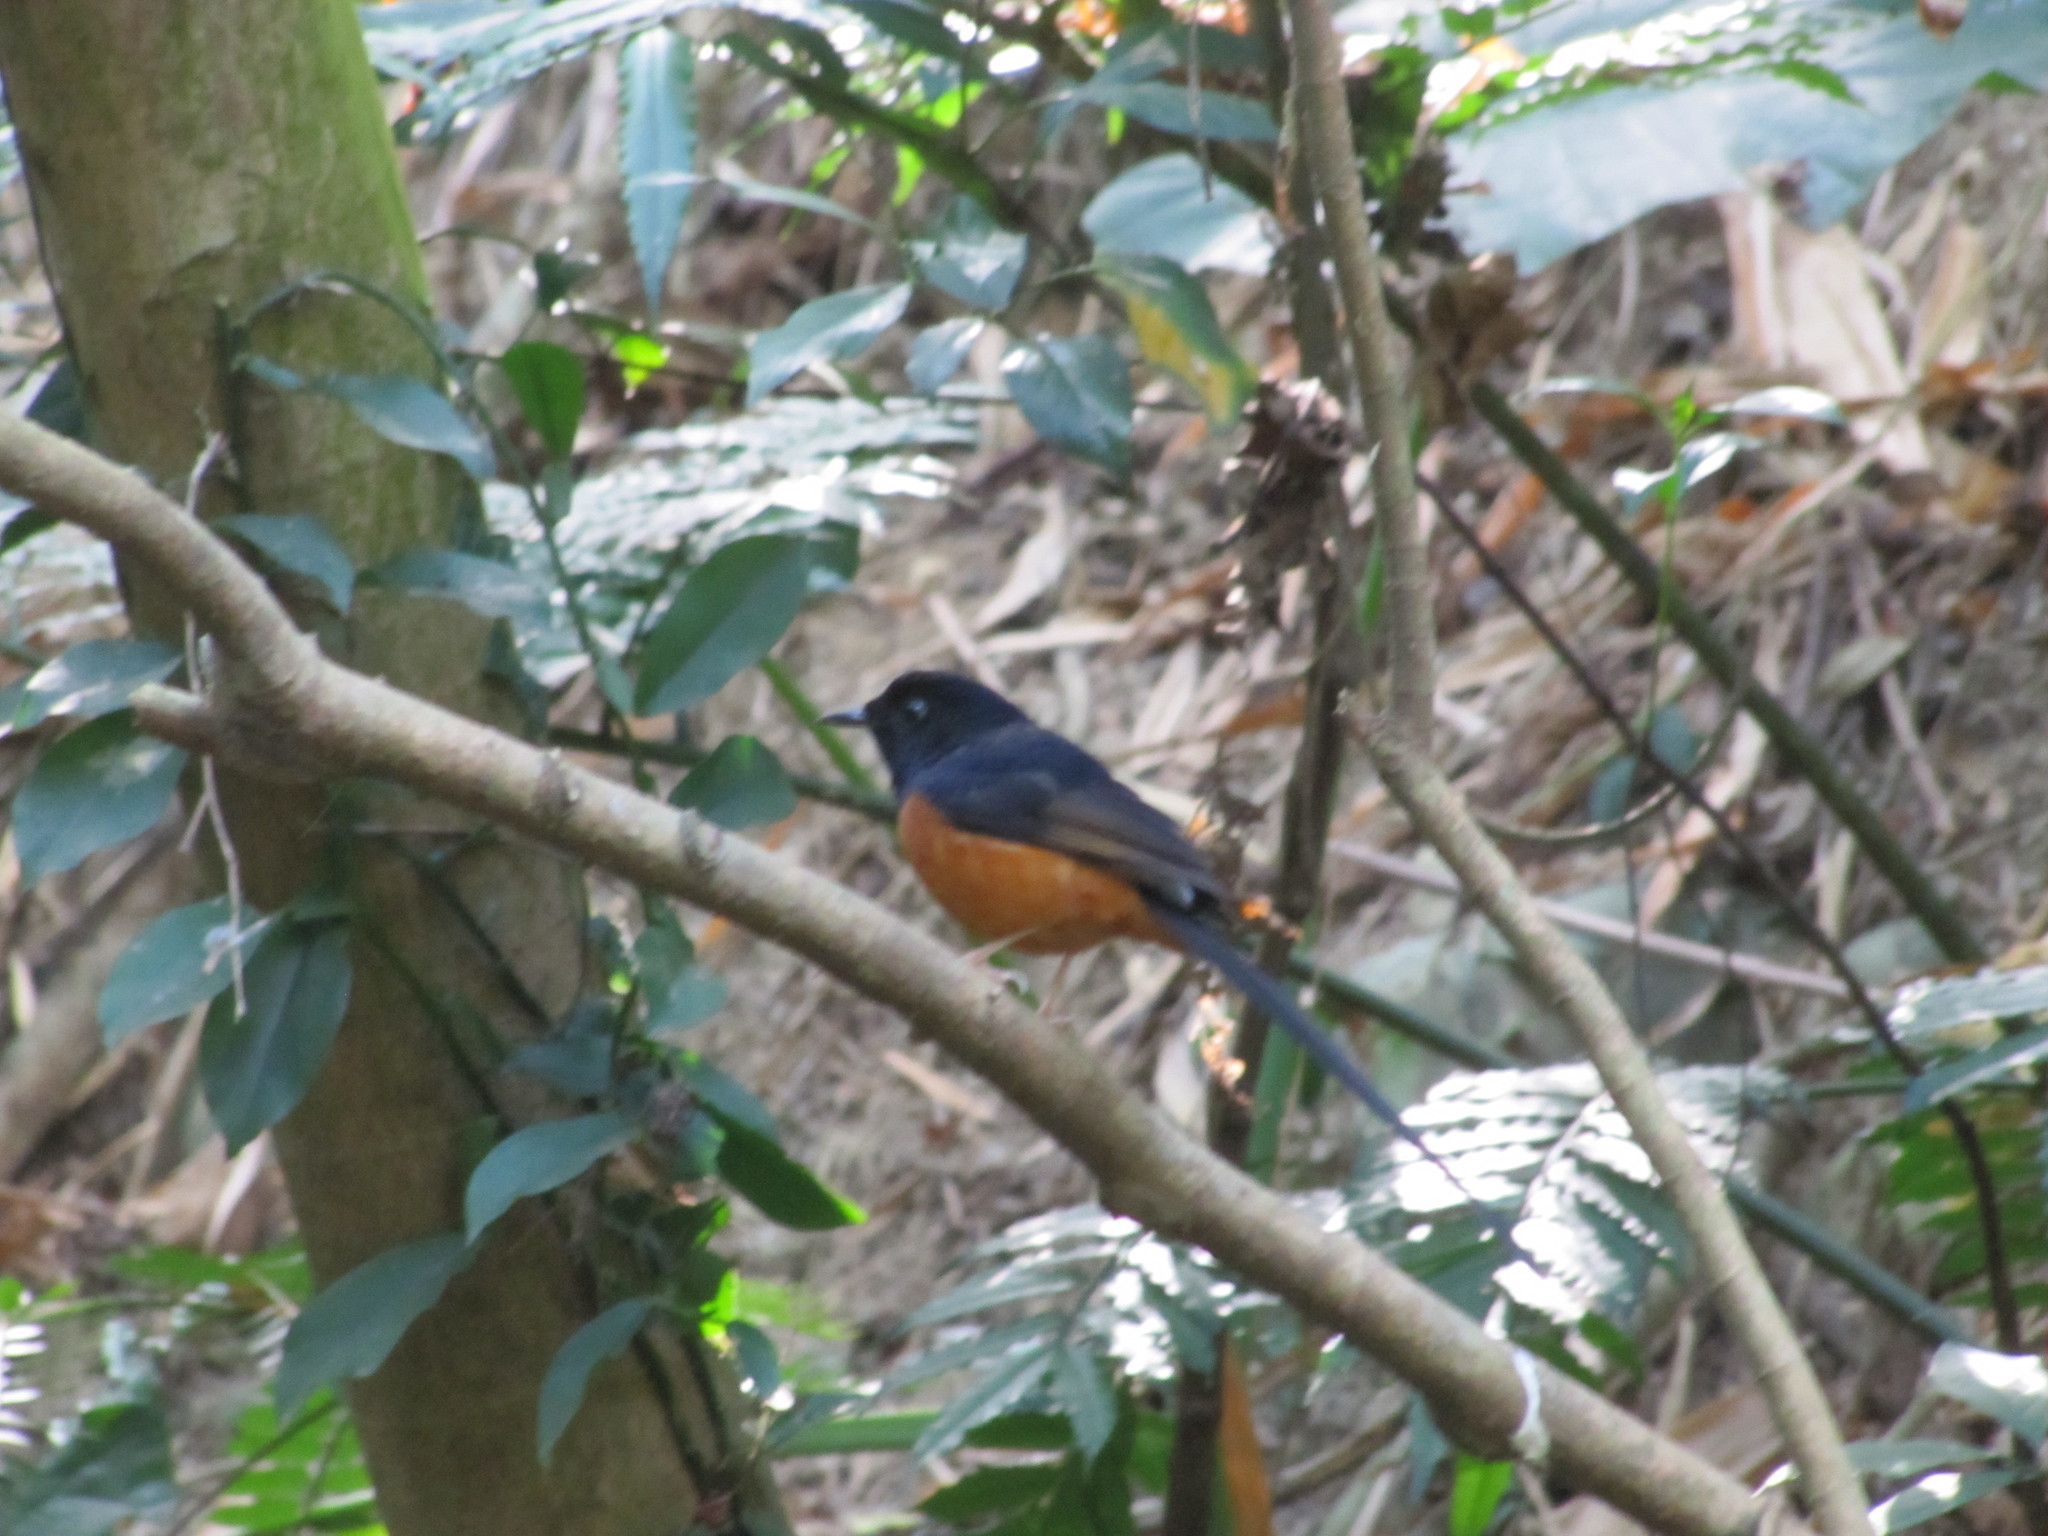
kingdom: Animalia
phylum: Chordata
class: Aves
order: Passeriformes
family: Muscicapidae
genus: Copsychus
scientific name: Copsychus malabaricus
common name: White-rumped shama
